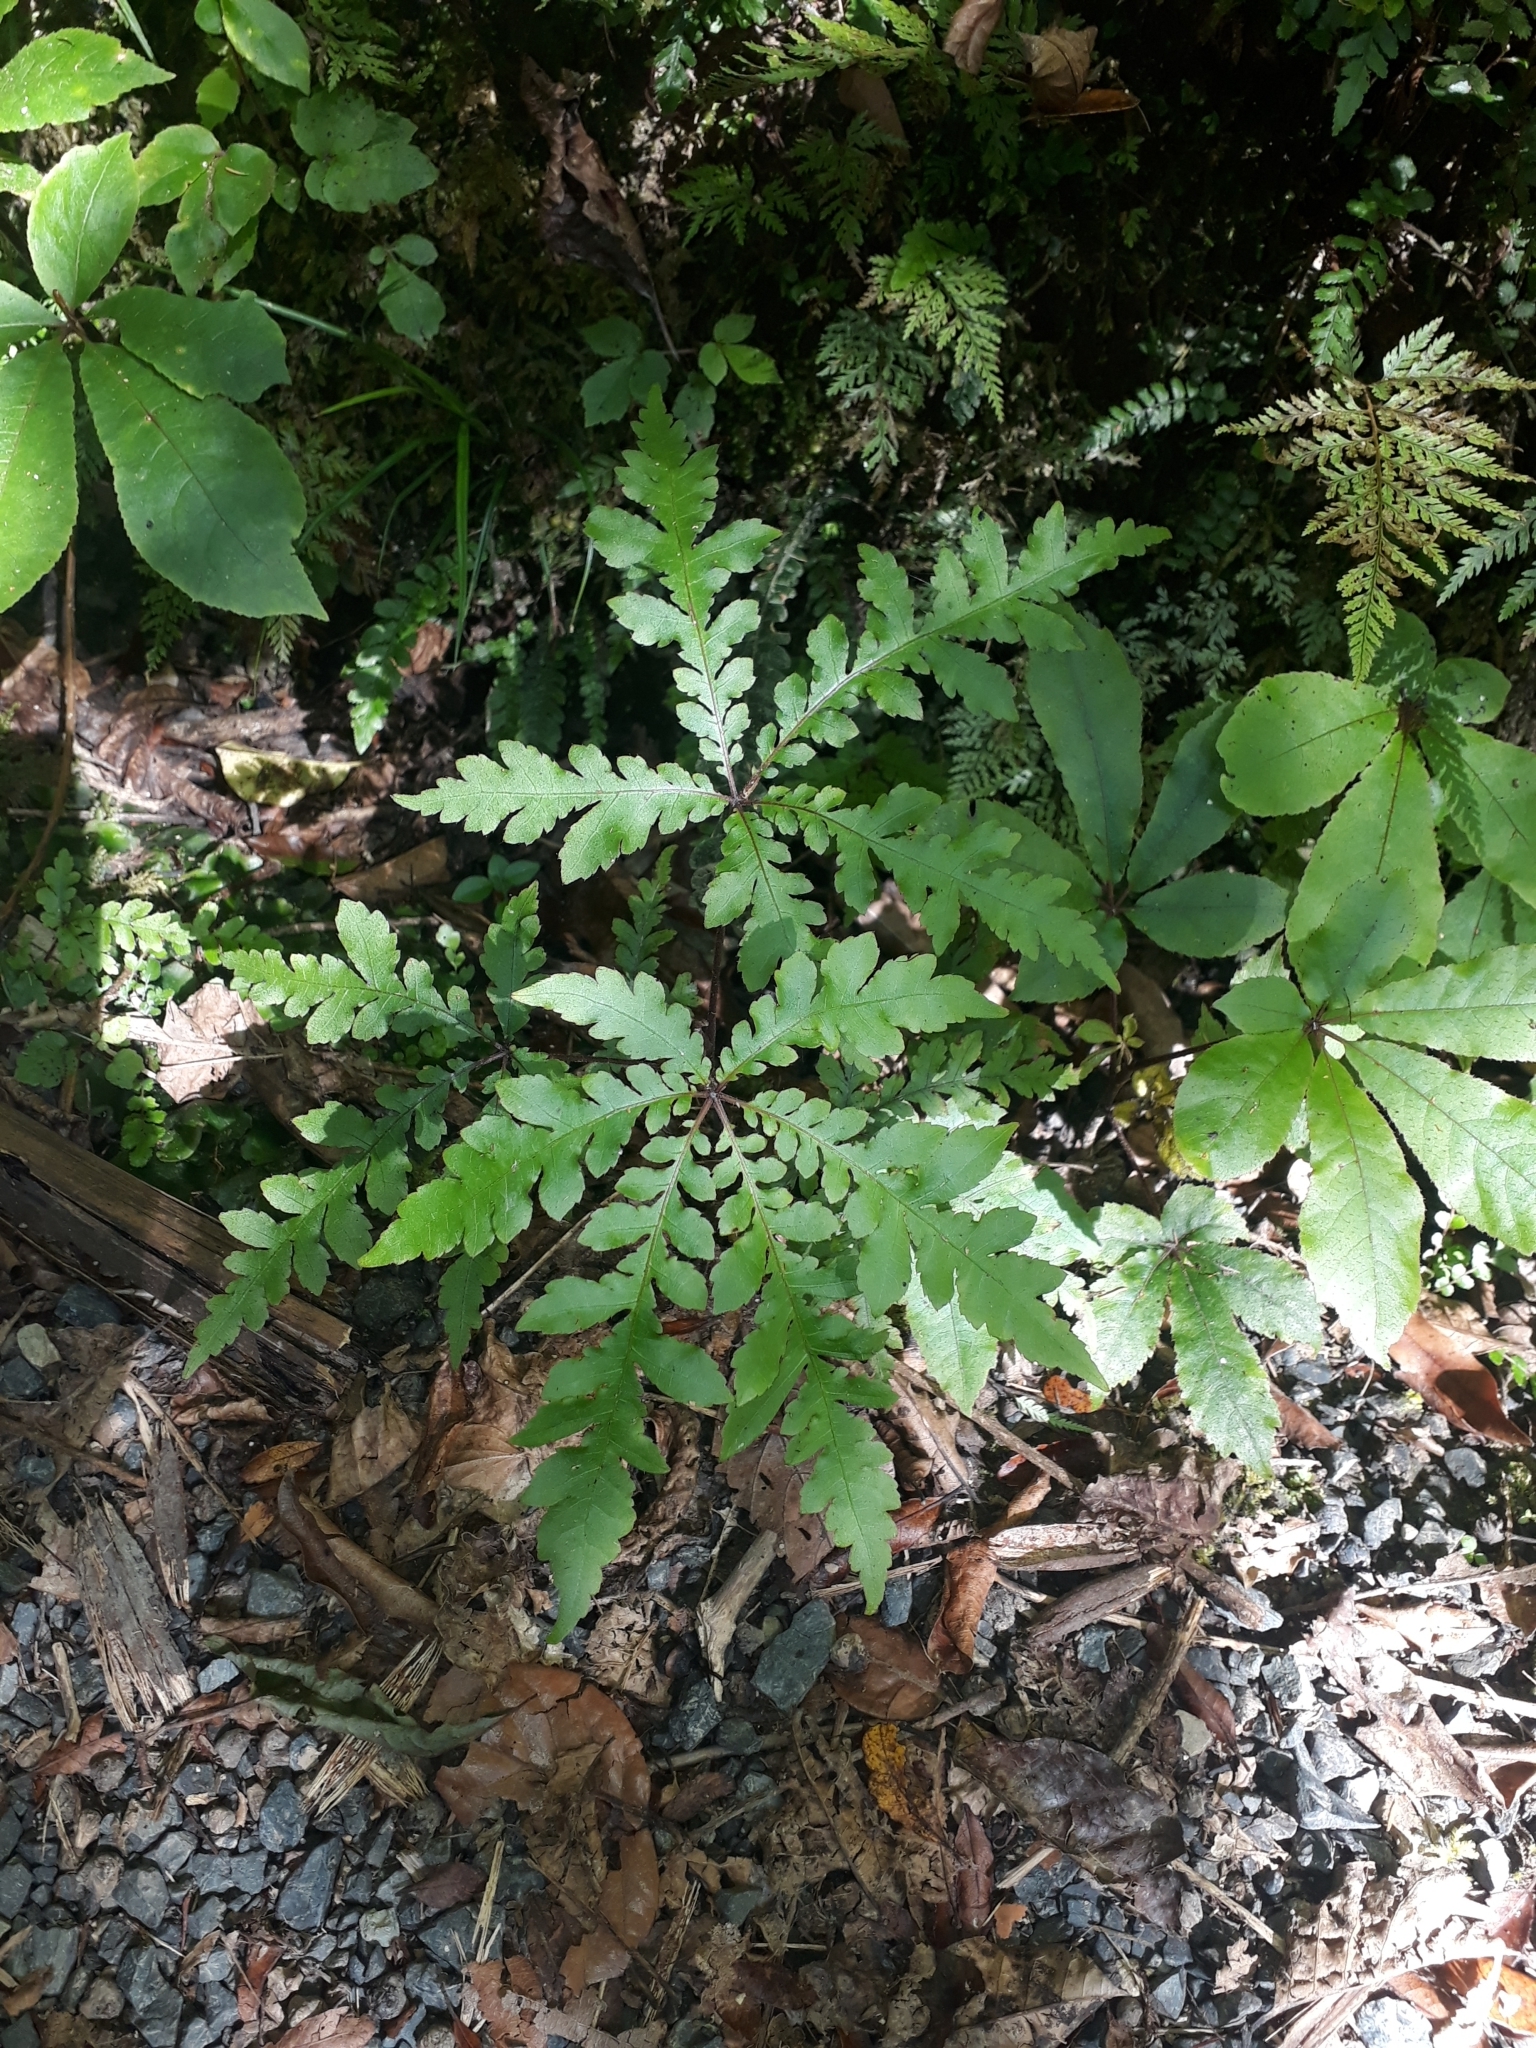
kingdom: Plantae
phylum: Tracheophyta
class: Magnoliopsida
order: Apiales
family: Araliaceae
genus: Schefflera
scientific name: Schefflera digitata
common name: Pate
